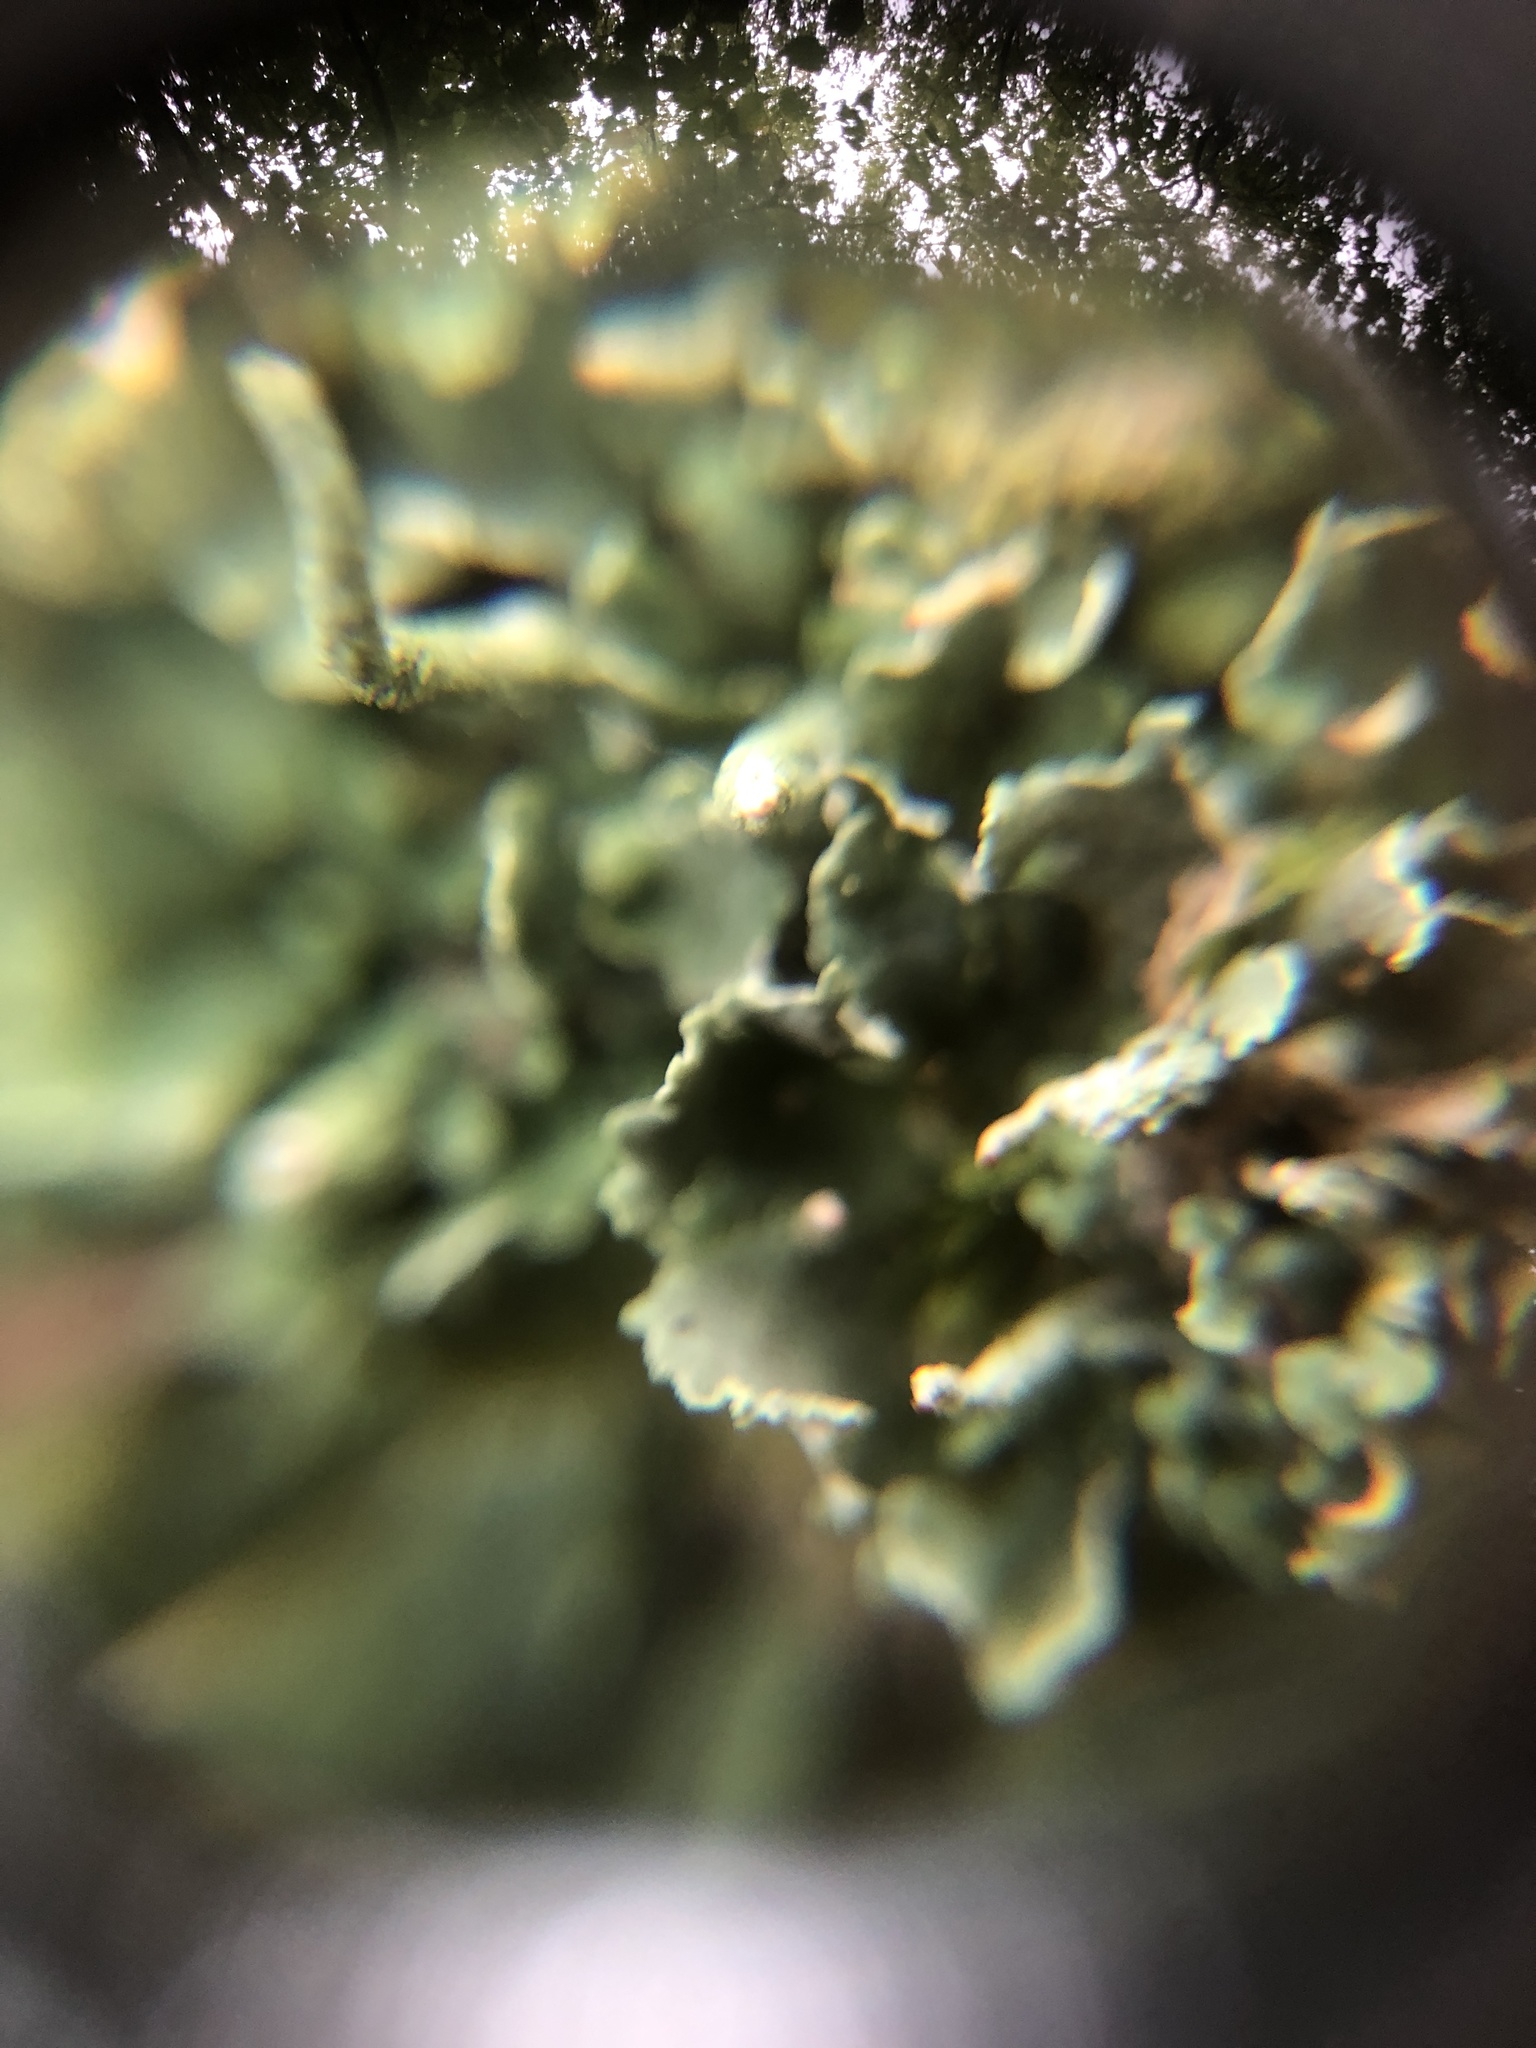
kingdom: Fungi
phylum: Ascomycota
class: Lecanoromycetes
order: Lecanorales
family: Cladoniaceae
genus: Cladonia
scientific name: Cladonia coniocraea
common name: Common powderhorn
